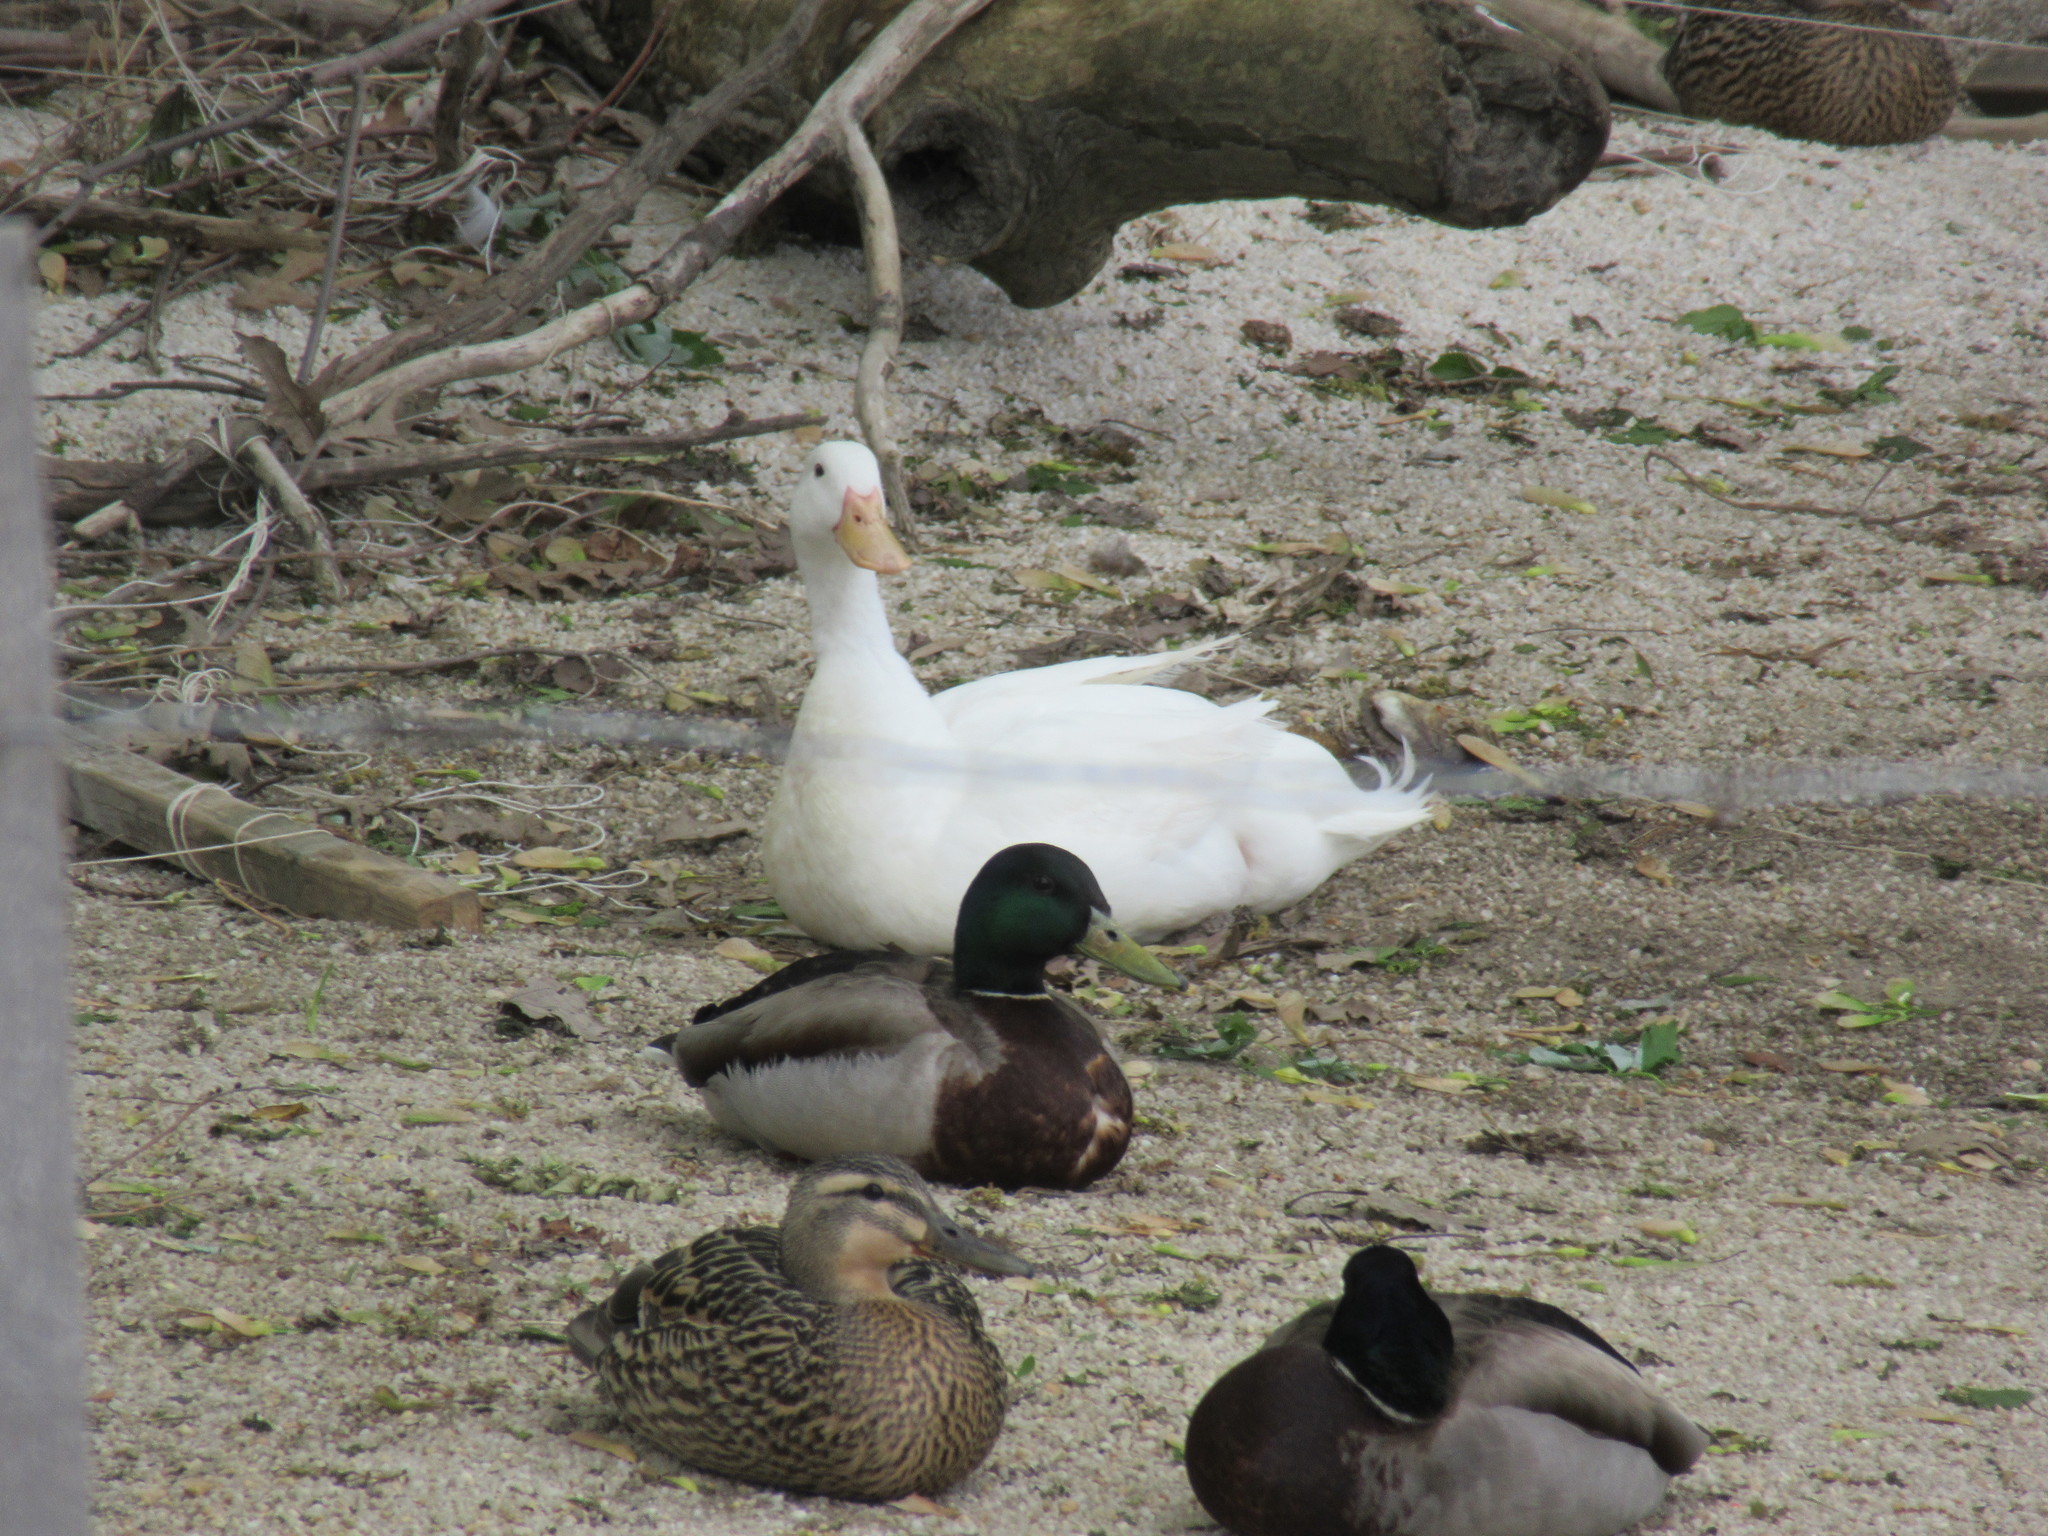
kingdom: Animalia
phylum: Chordata
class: Aves
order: Anseriformes
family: Anatidae
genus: Anas
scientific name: Anas platyrhynchos
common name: Mallard
